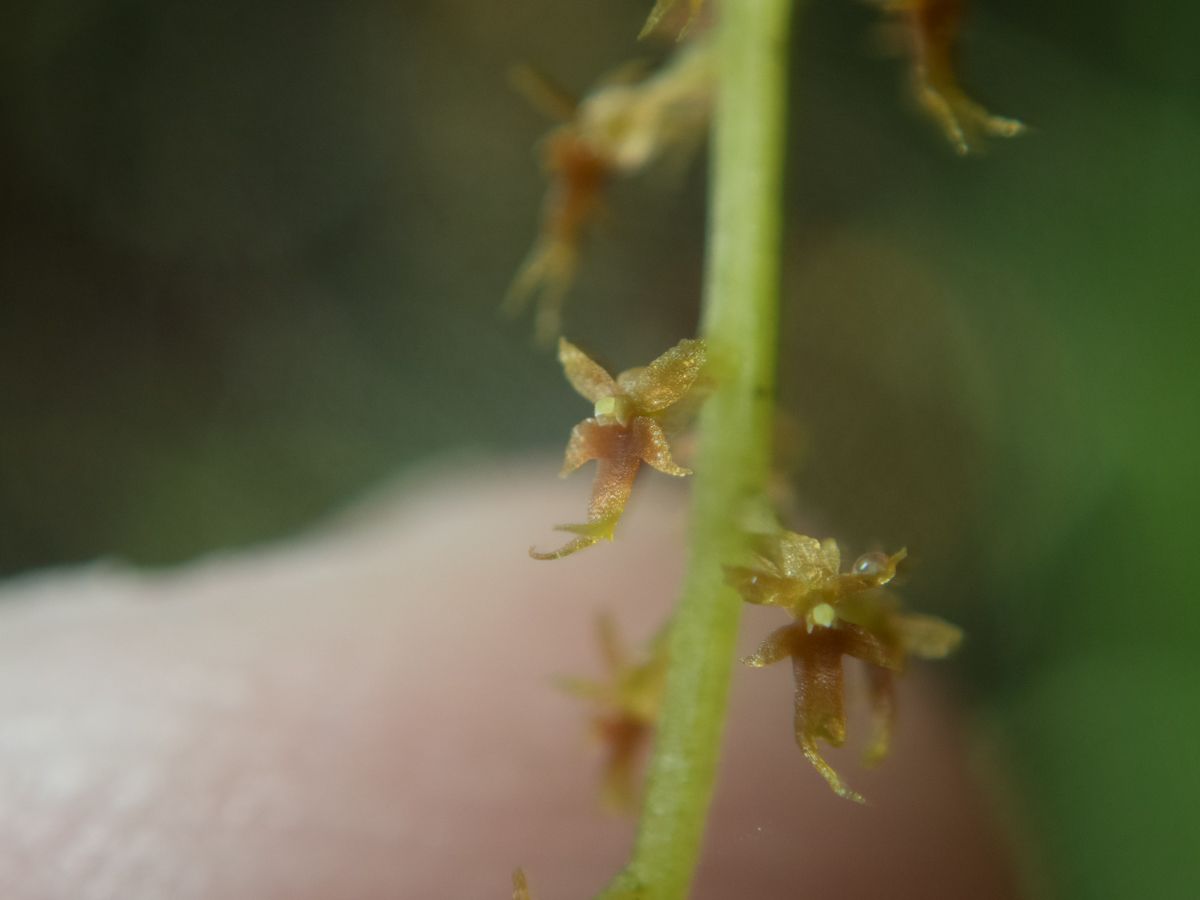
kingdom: Plantae
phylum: Tracheophyta
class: Liliopsida
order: Asparagales
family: Orchidaceae
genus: Oberonia
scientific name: Oberonia falcata
